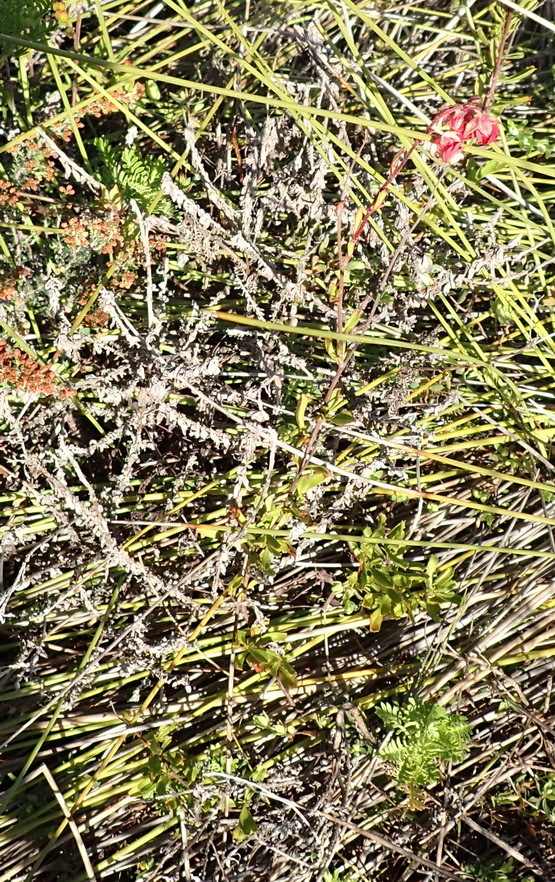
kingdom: Plantae
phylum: Tracheophyta
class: Magnoliopsida
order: Malvales
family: Malvaceae
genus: Hermannia
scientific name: Hermannia flammea
